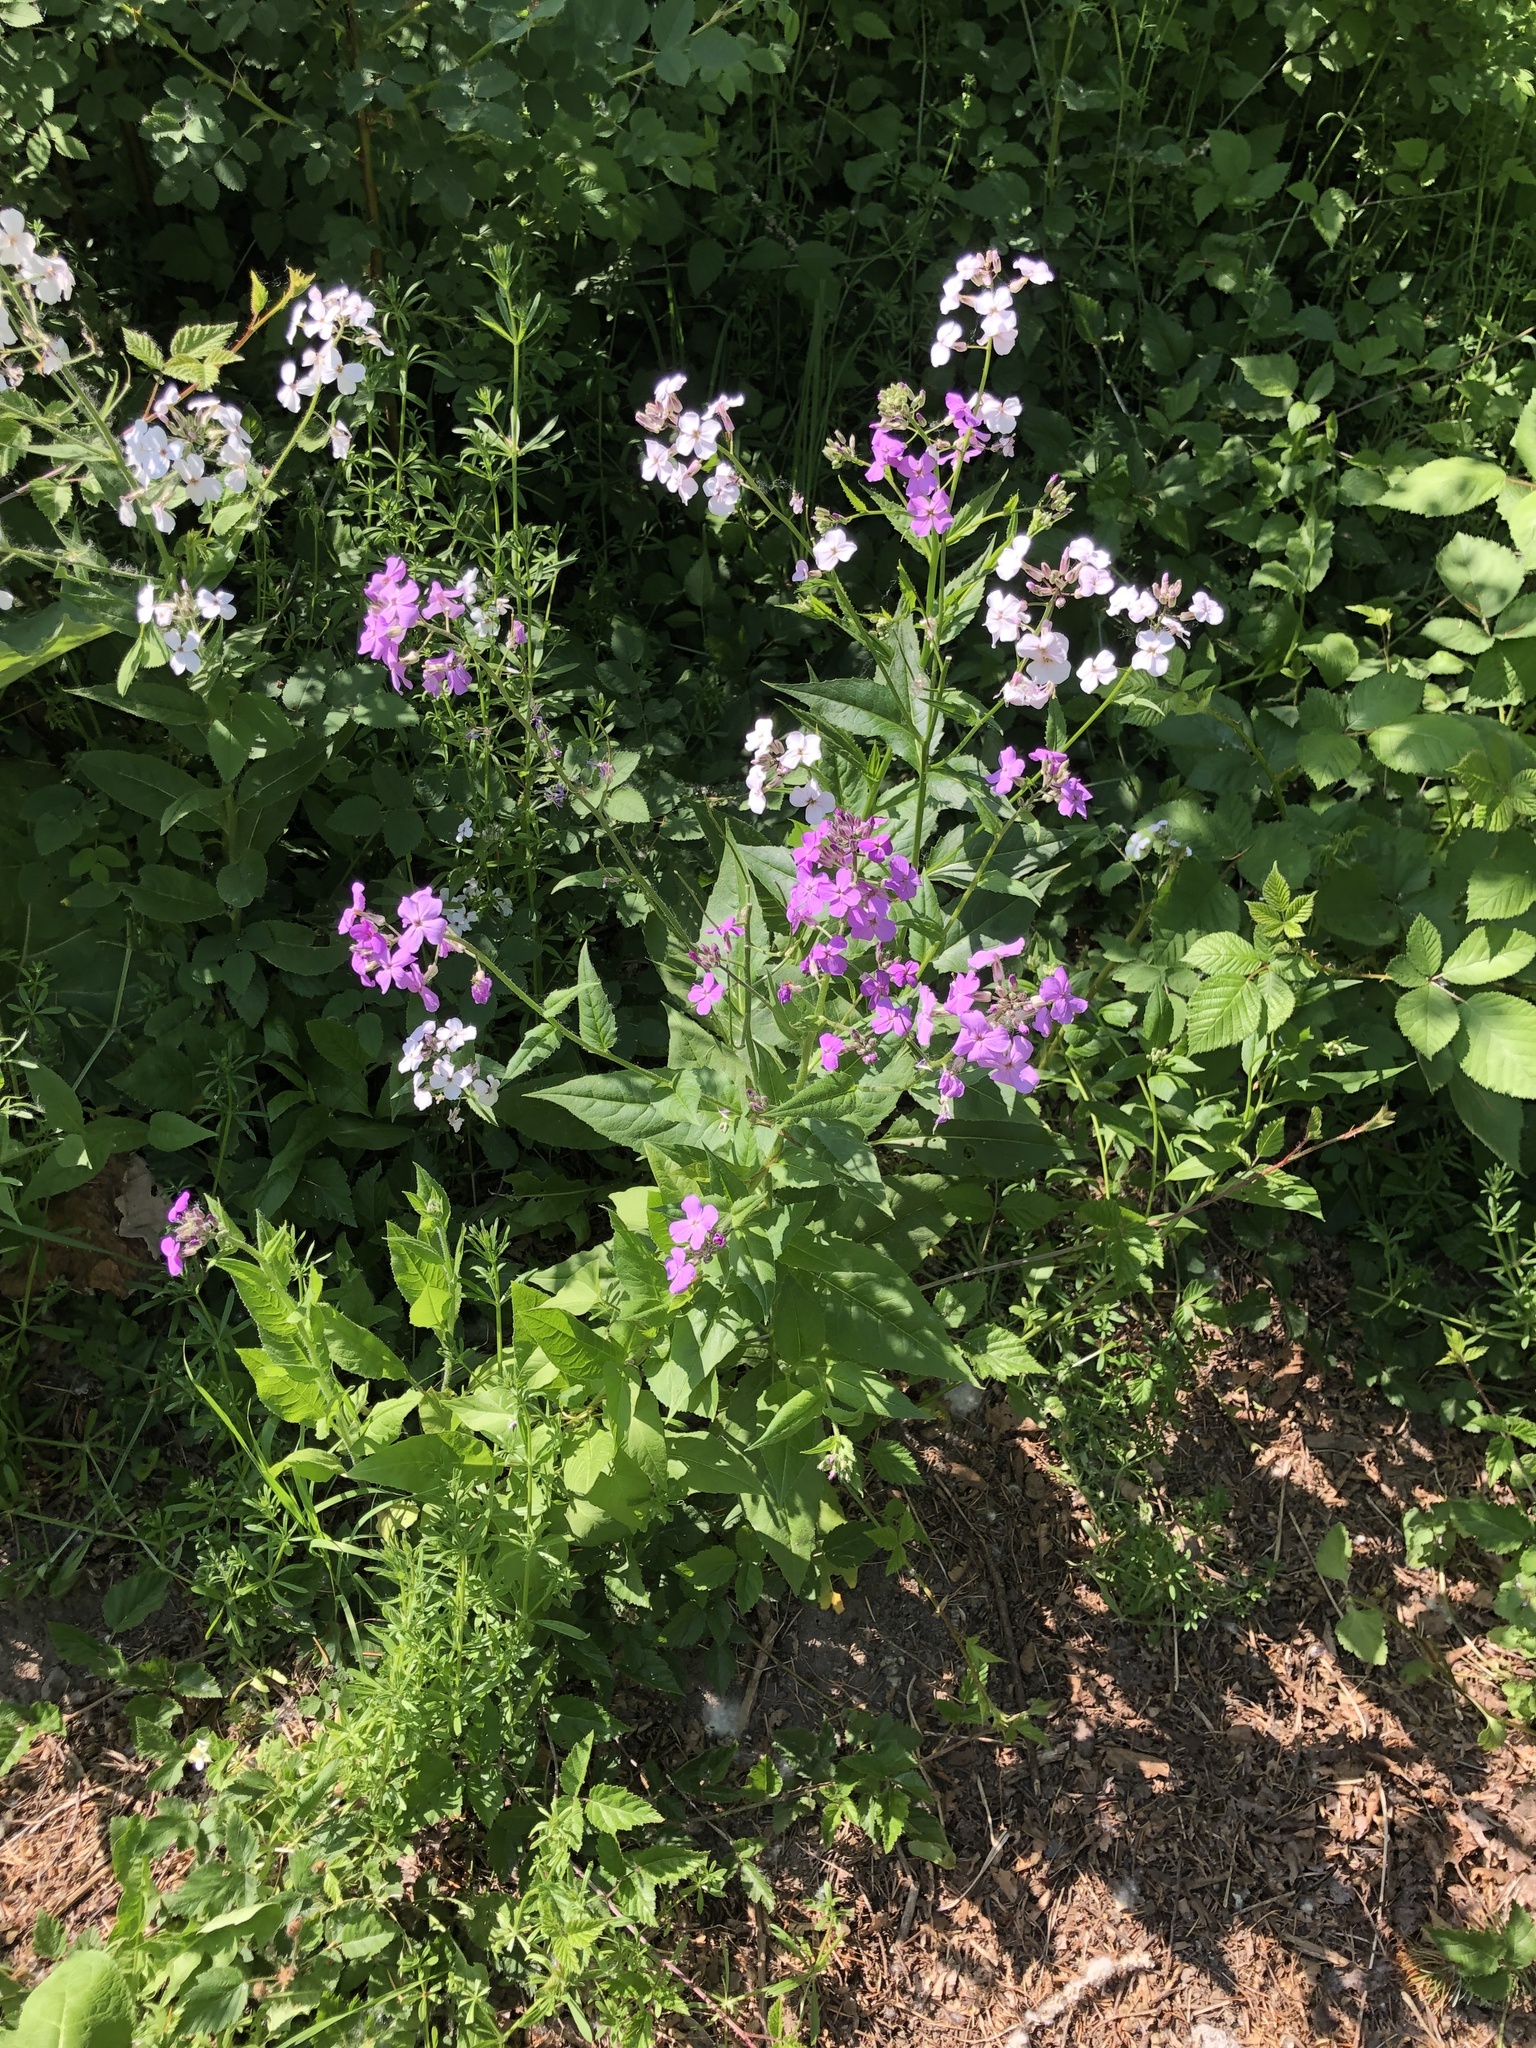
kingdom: Plantae
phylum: Tracheophyta
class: Magnoliopsida
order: Brassicales
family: Brassicaceae
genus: Hesperis
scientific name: Hesperis matronalis
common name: Dame's-violet
